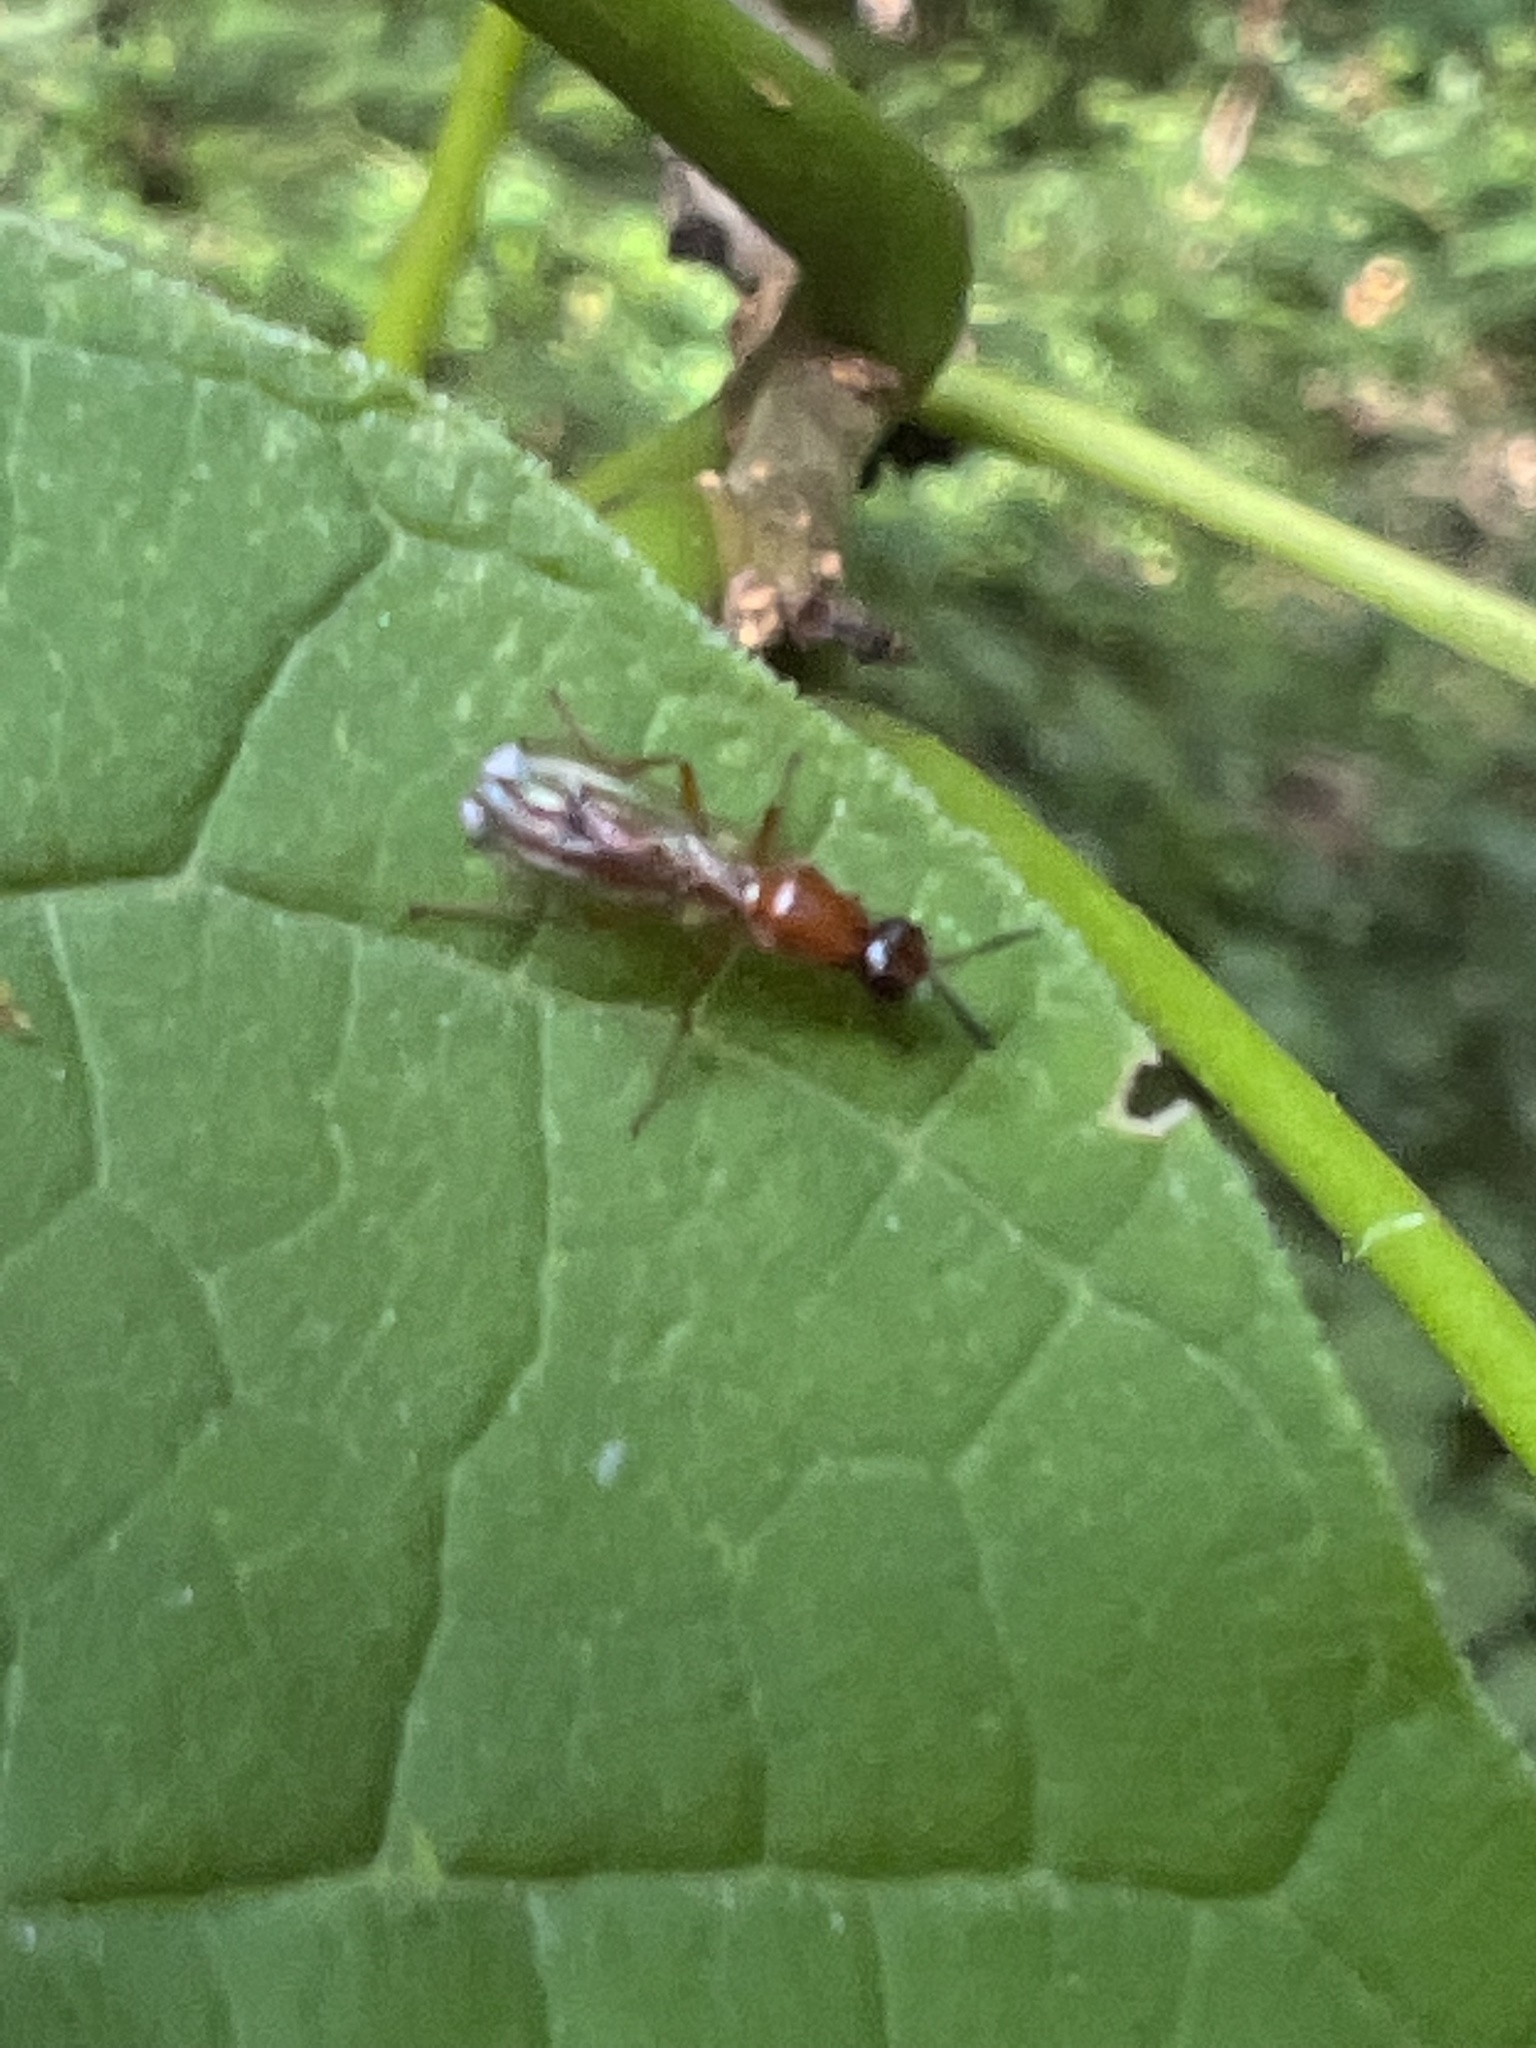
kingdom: Animalia
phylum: Arthropoda
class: Insecta
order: Diptera
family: Psilidae
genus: Loxocera
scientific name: Loxocera cylindrica
